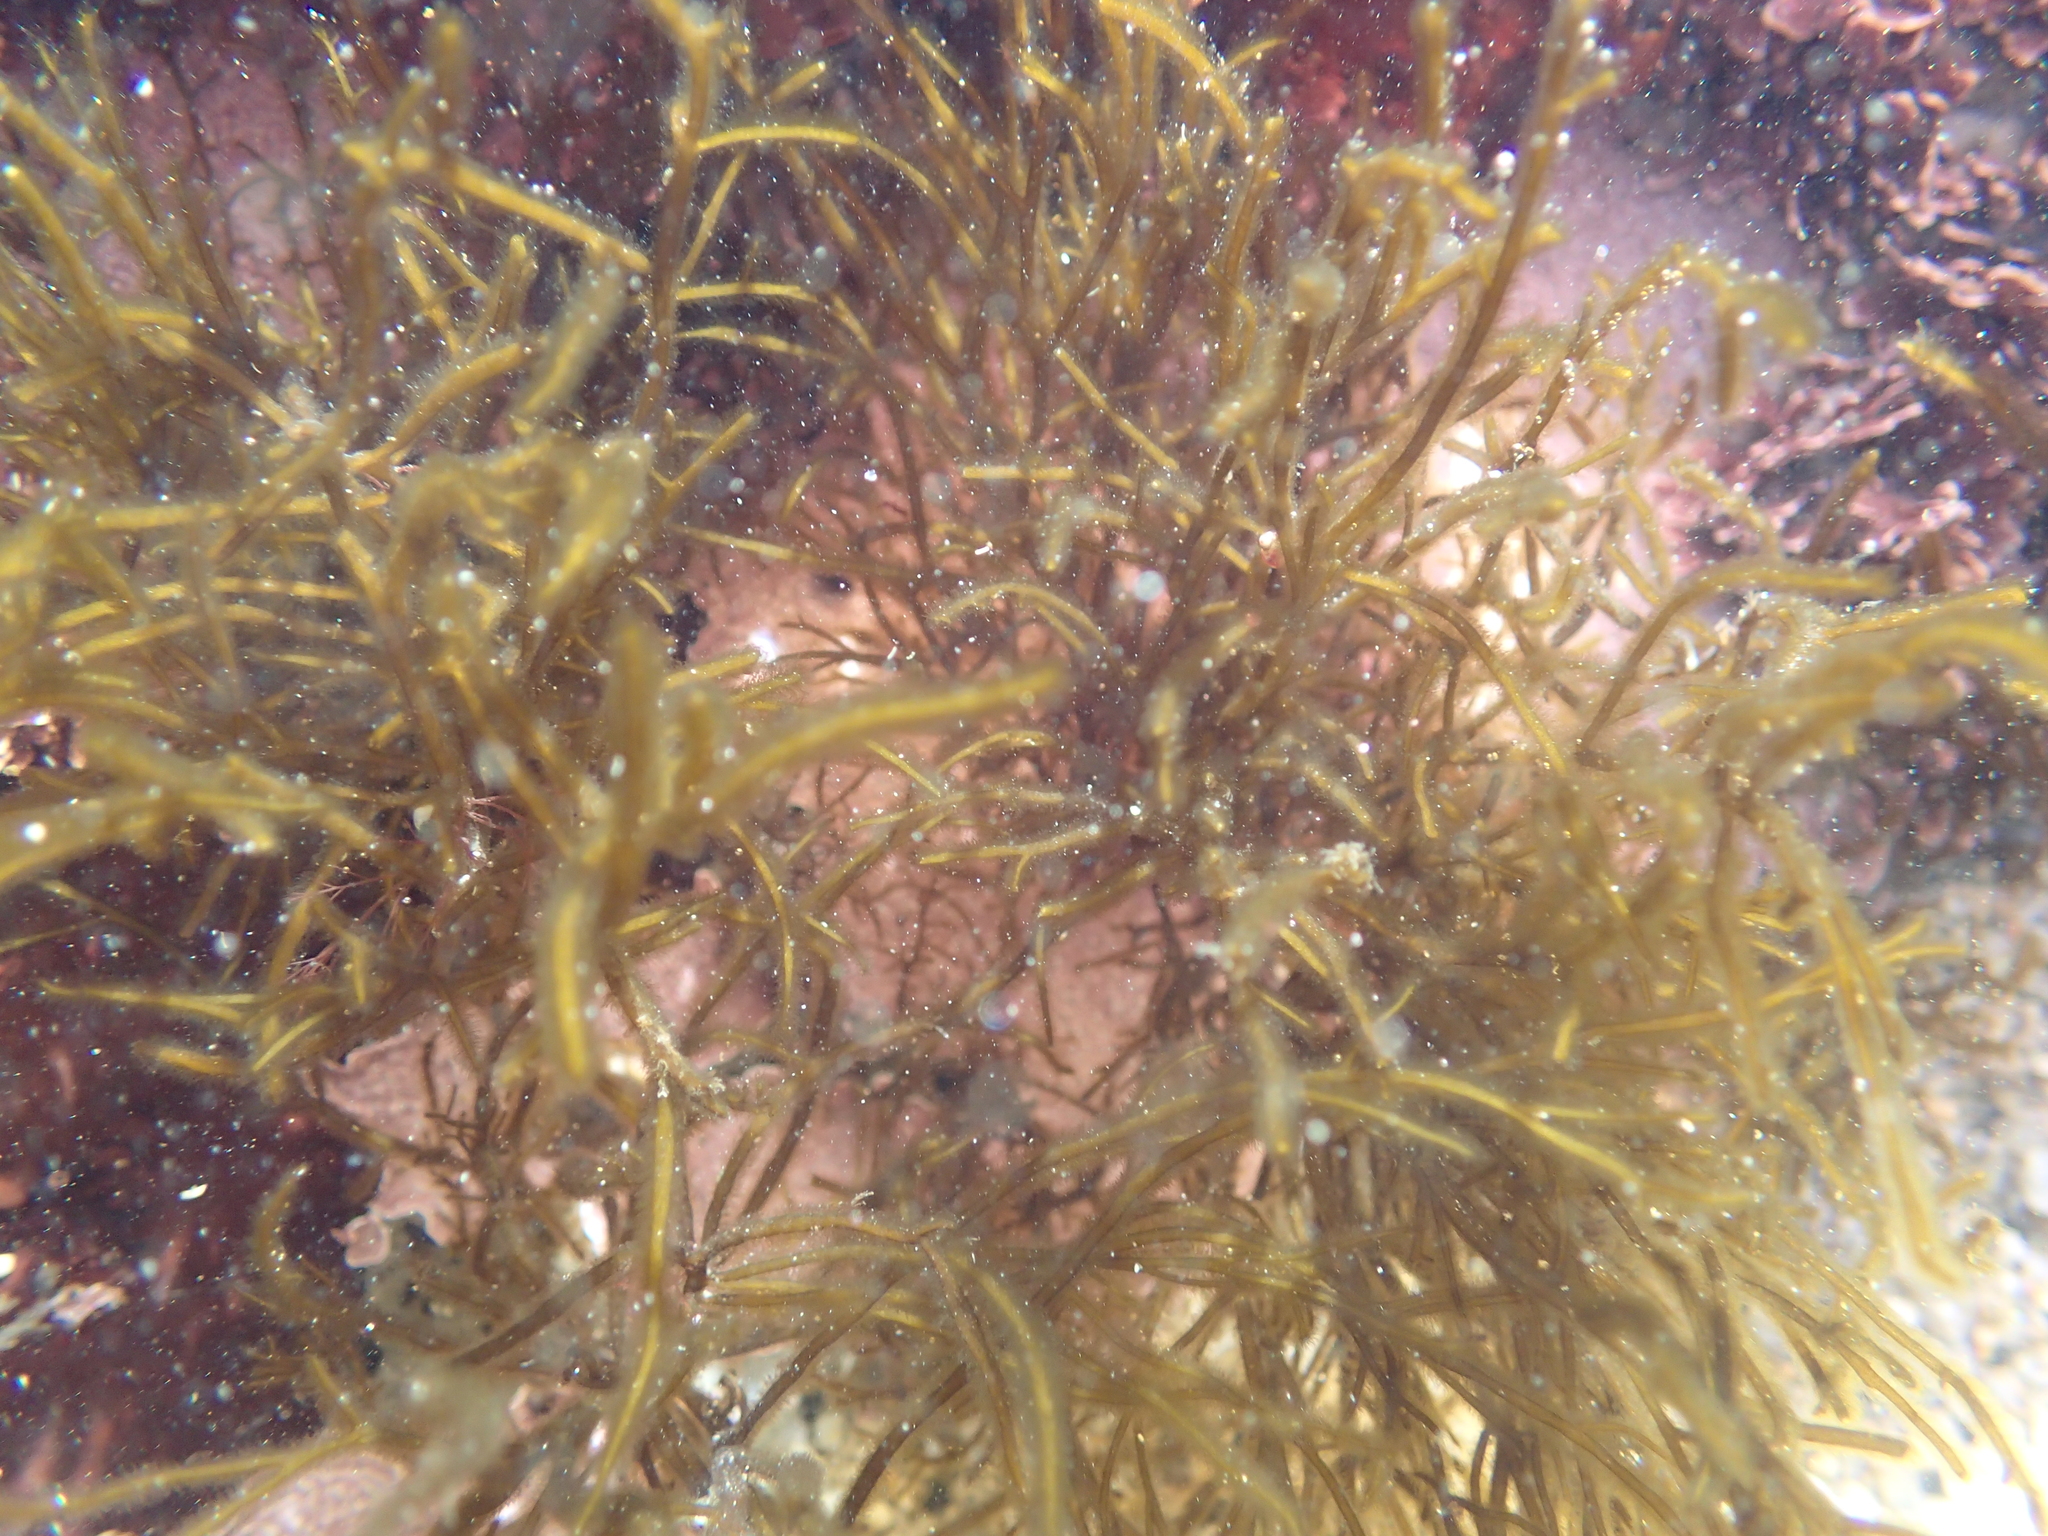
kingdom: Chromista
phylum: Ochrophyta
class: Phaeophyceae
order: Ectocarpales
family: Chordariaceae
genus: Haplogloia
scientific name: Haplogloia andersonii
